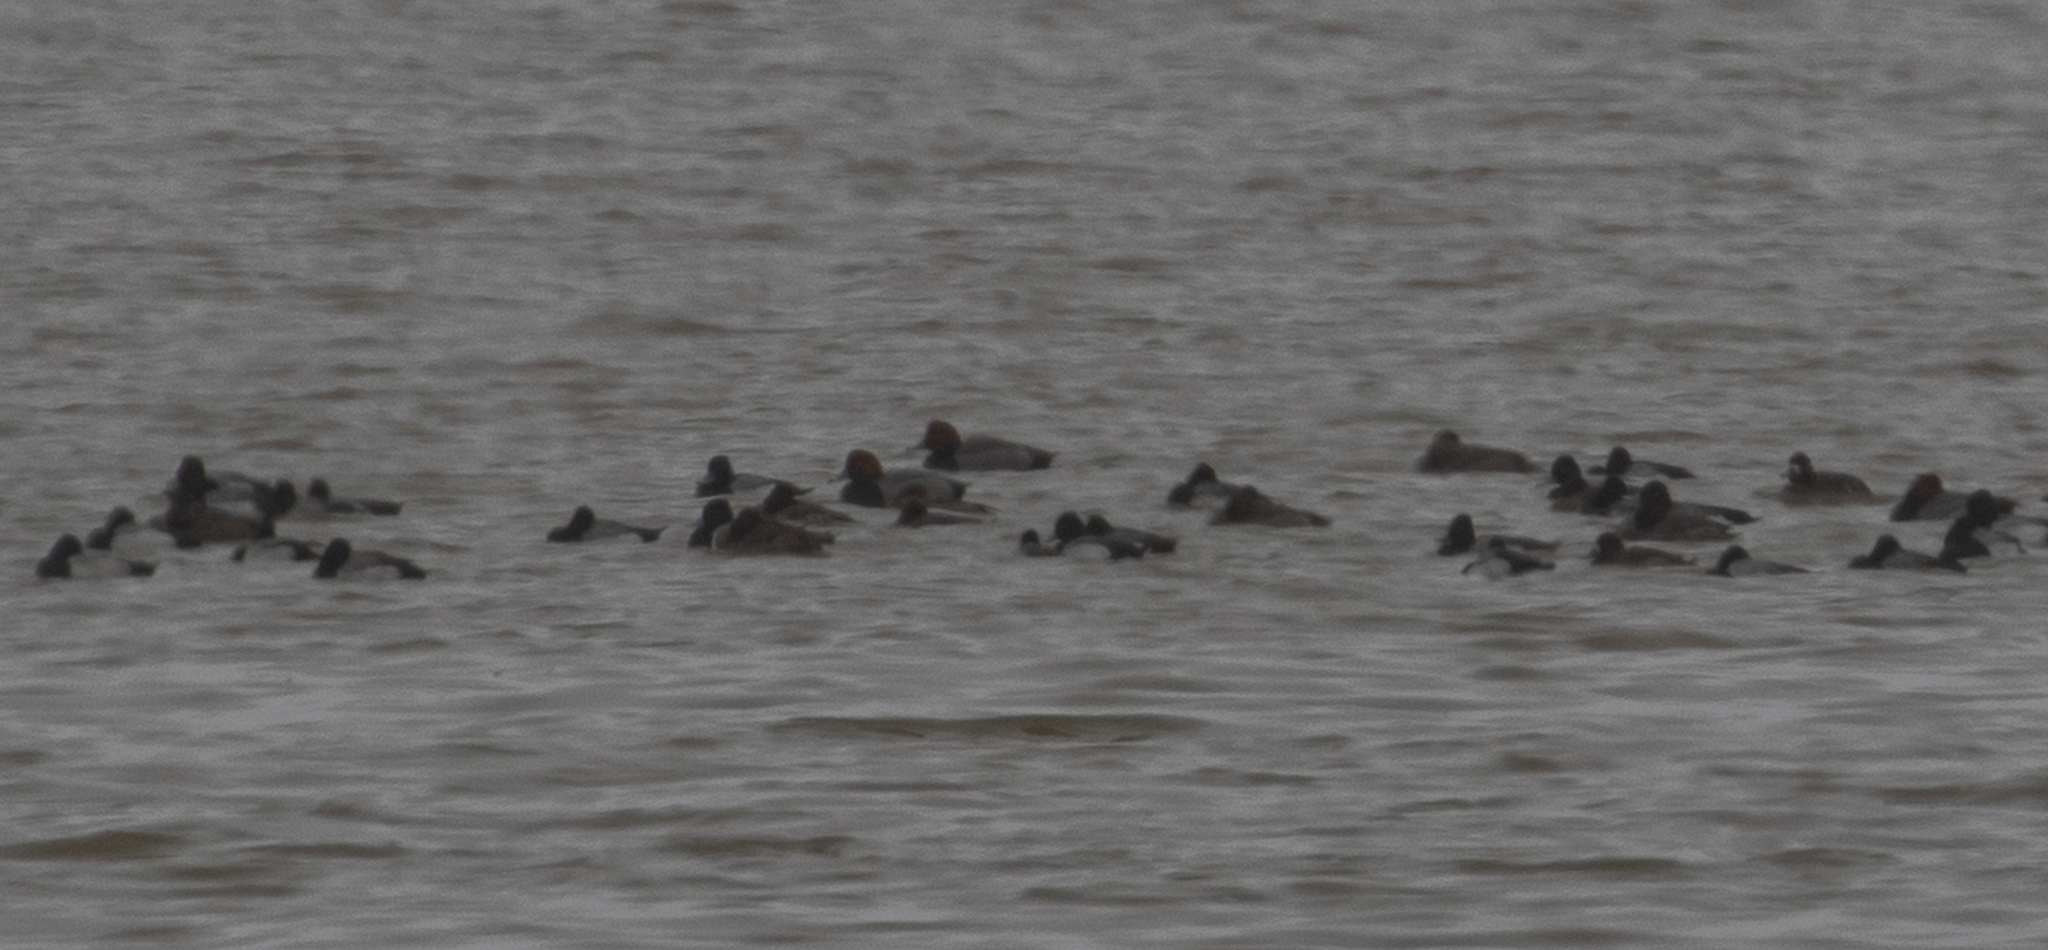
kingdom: Animalia
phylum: Chordata
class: Aves
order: Anseriformes
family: Anatidae
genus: Aythya
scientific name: Aythya americana
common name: Redhead
